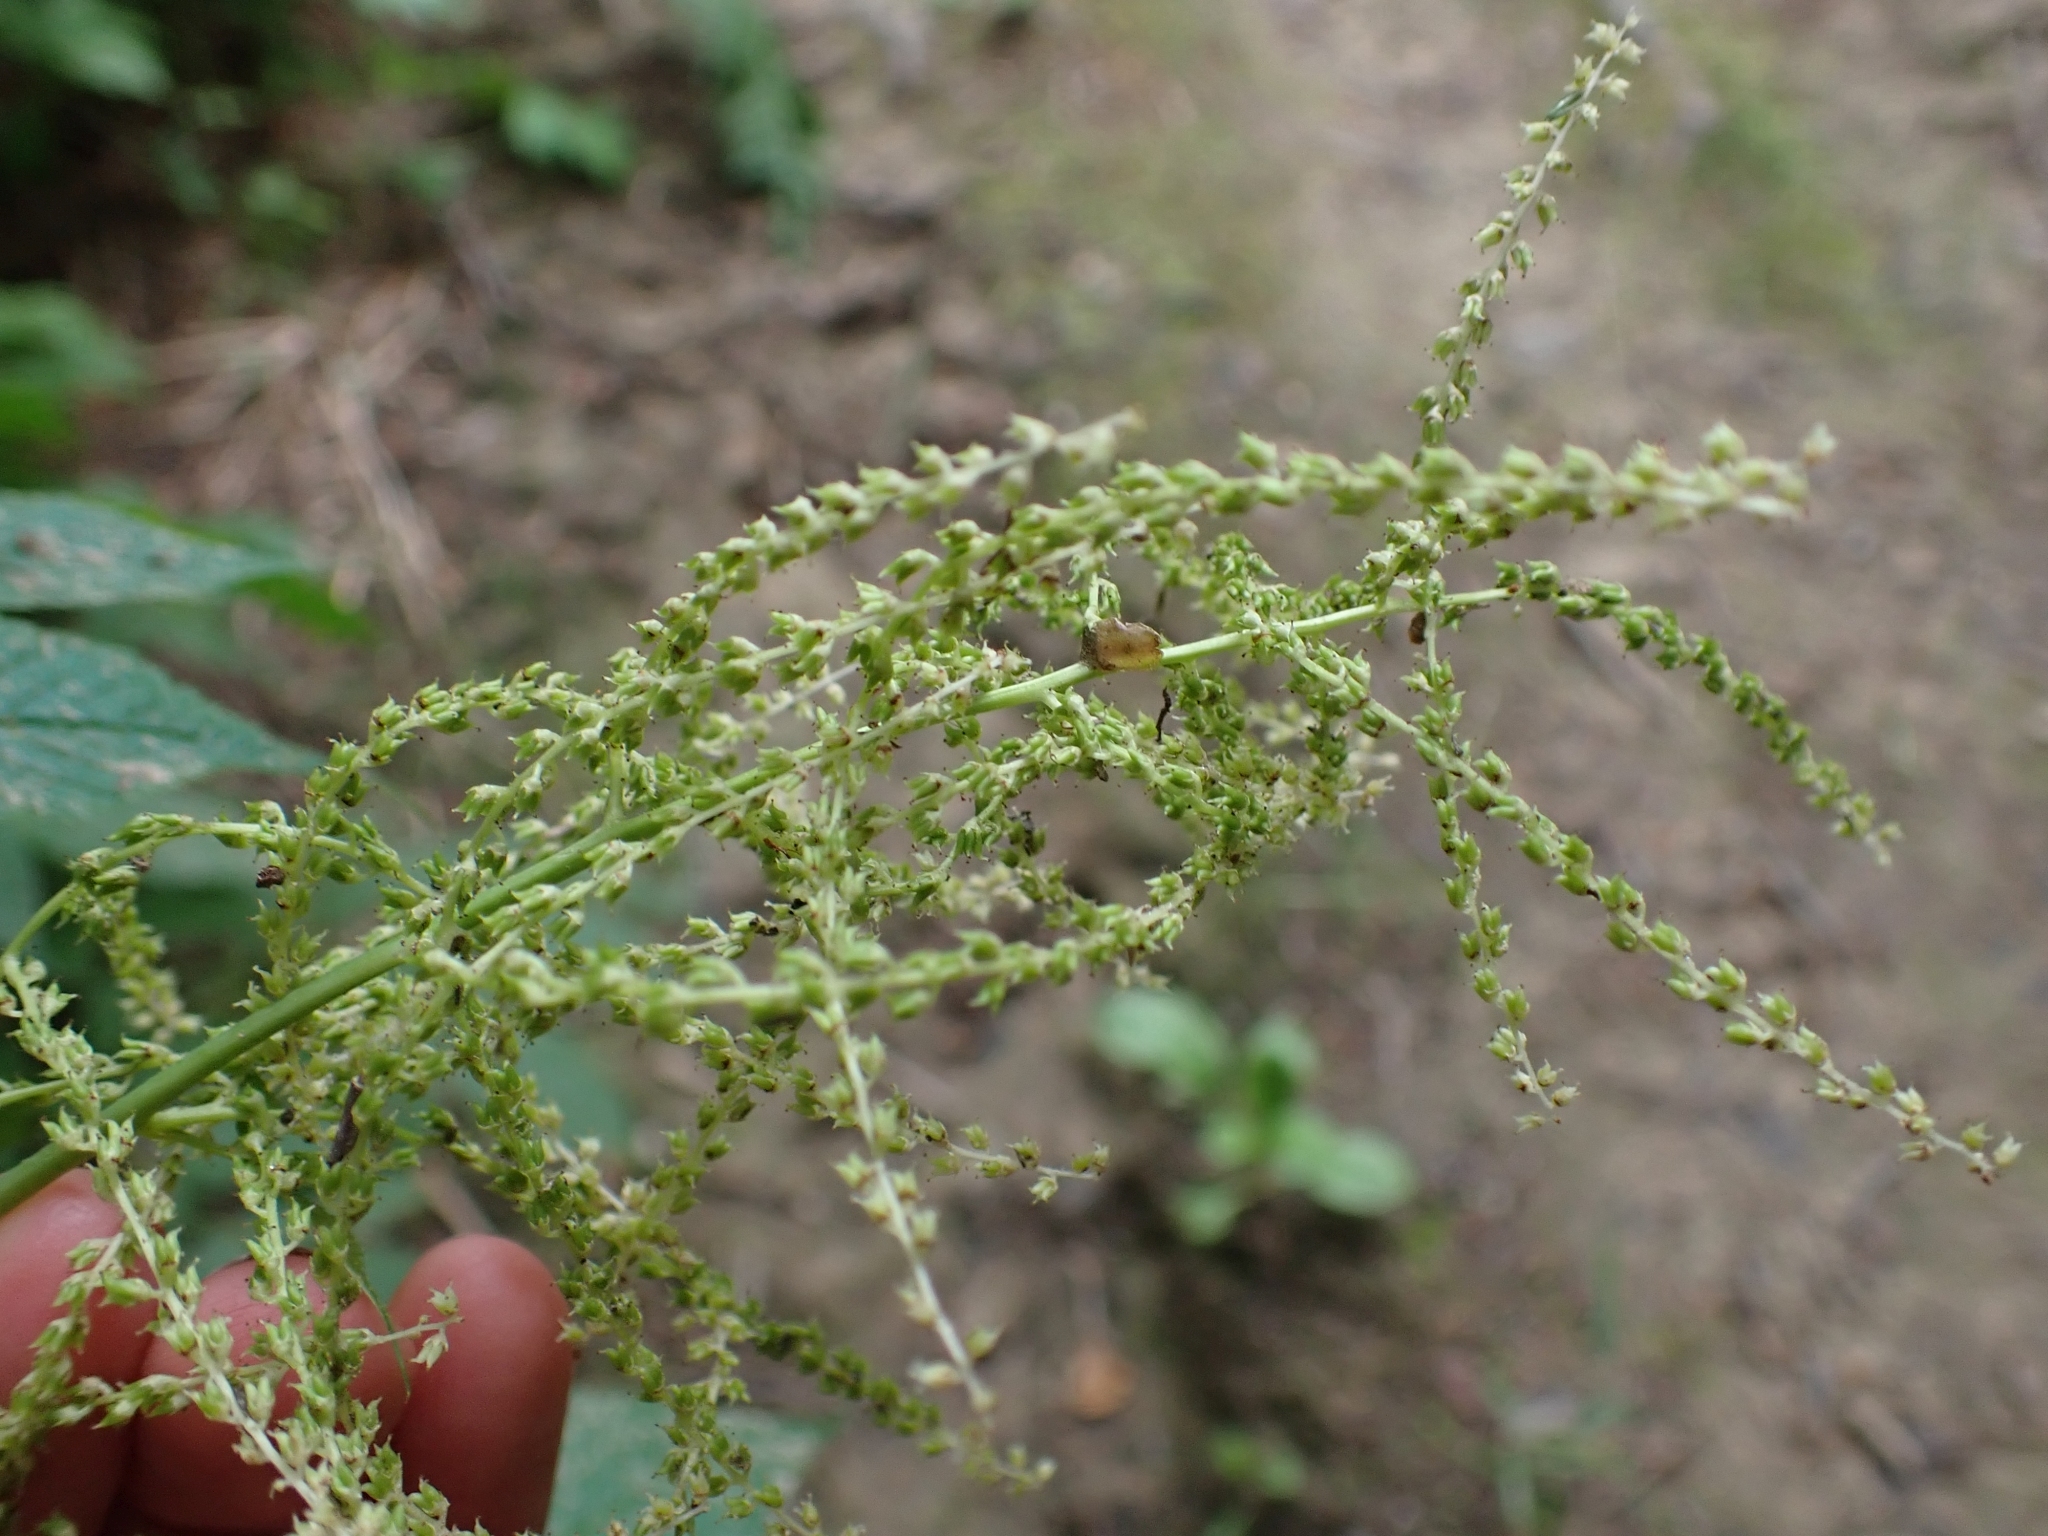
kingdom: Plantae
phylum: Tracheophyta
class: Magnoliopsida
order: Rosales
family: Rosaceae
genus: Aruncus
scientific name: Aruncus dioicus
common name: Buck's-beard
